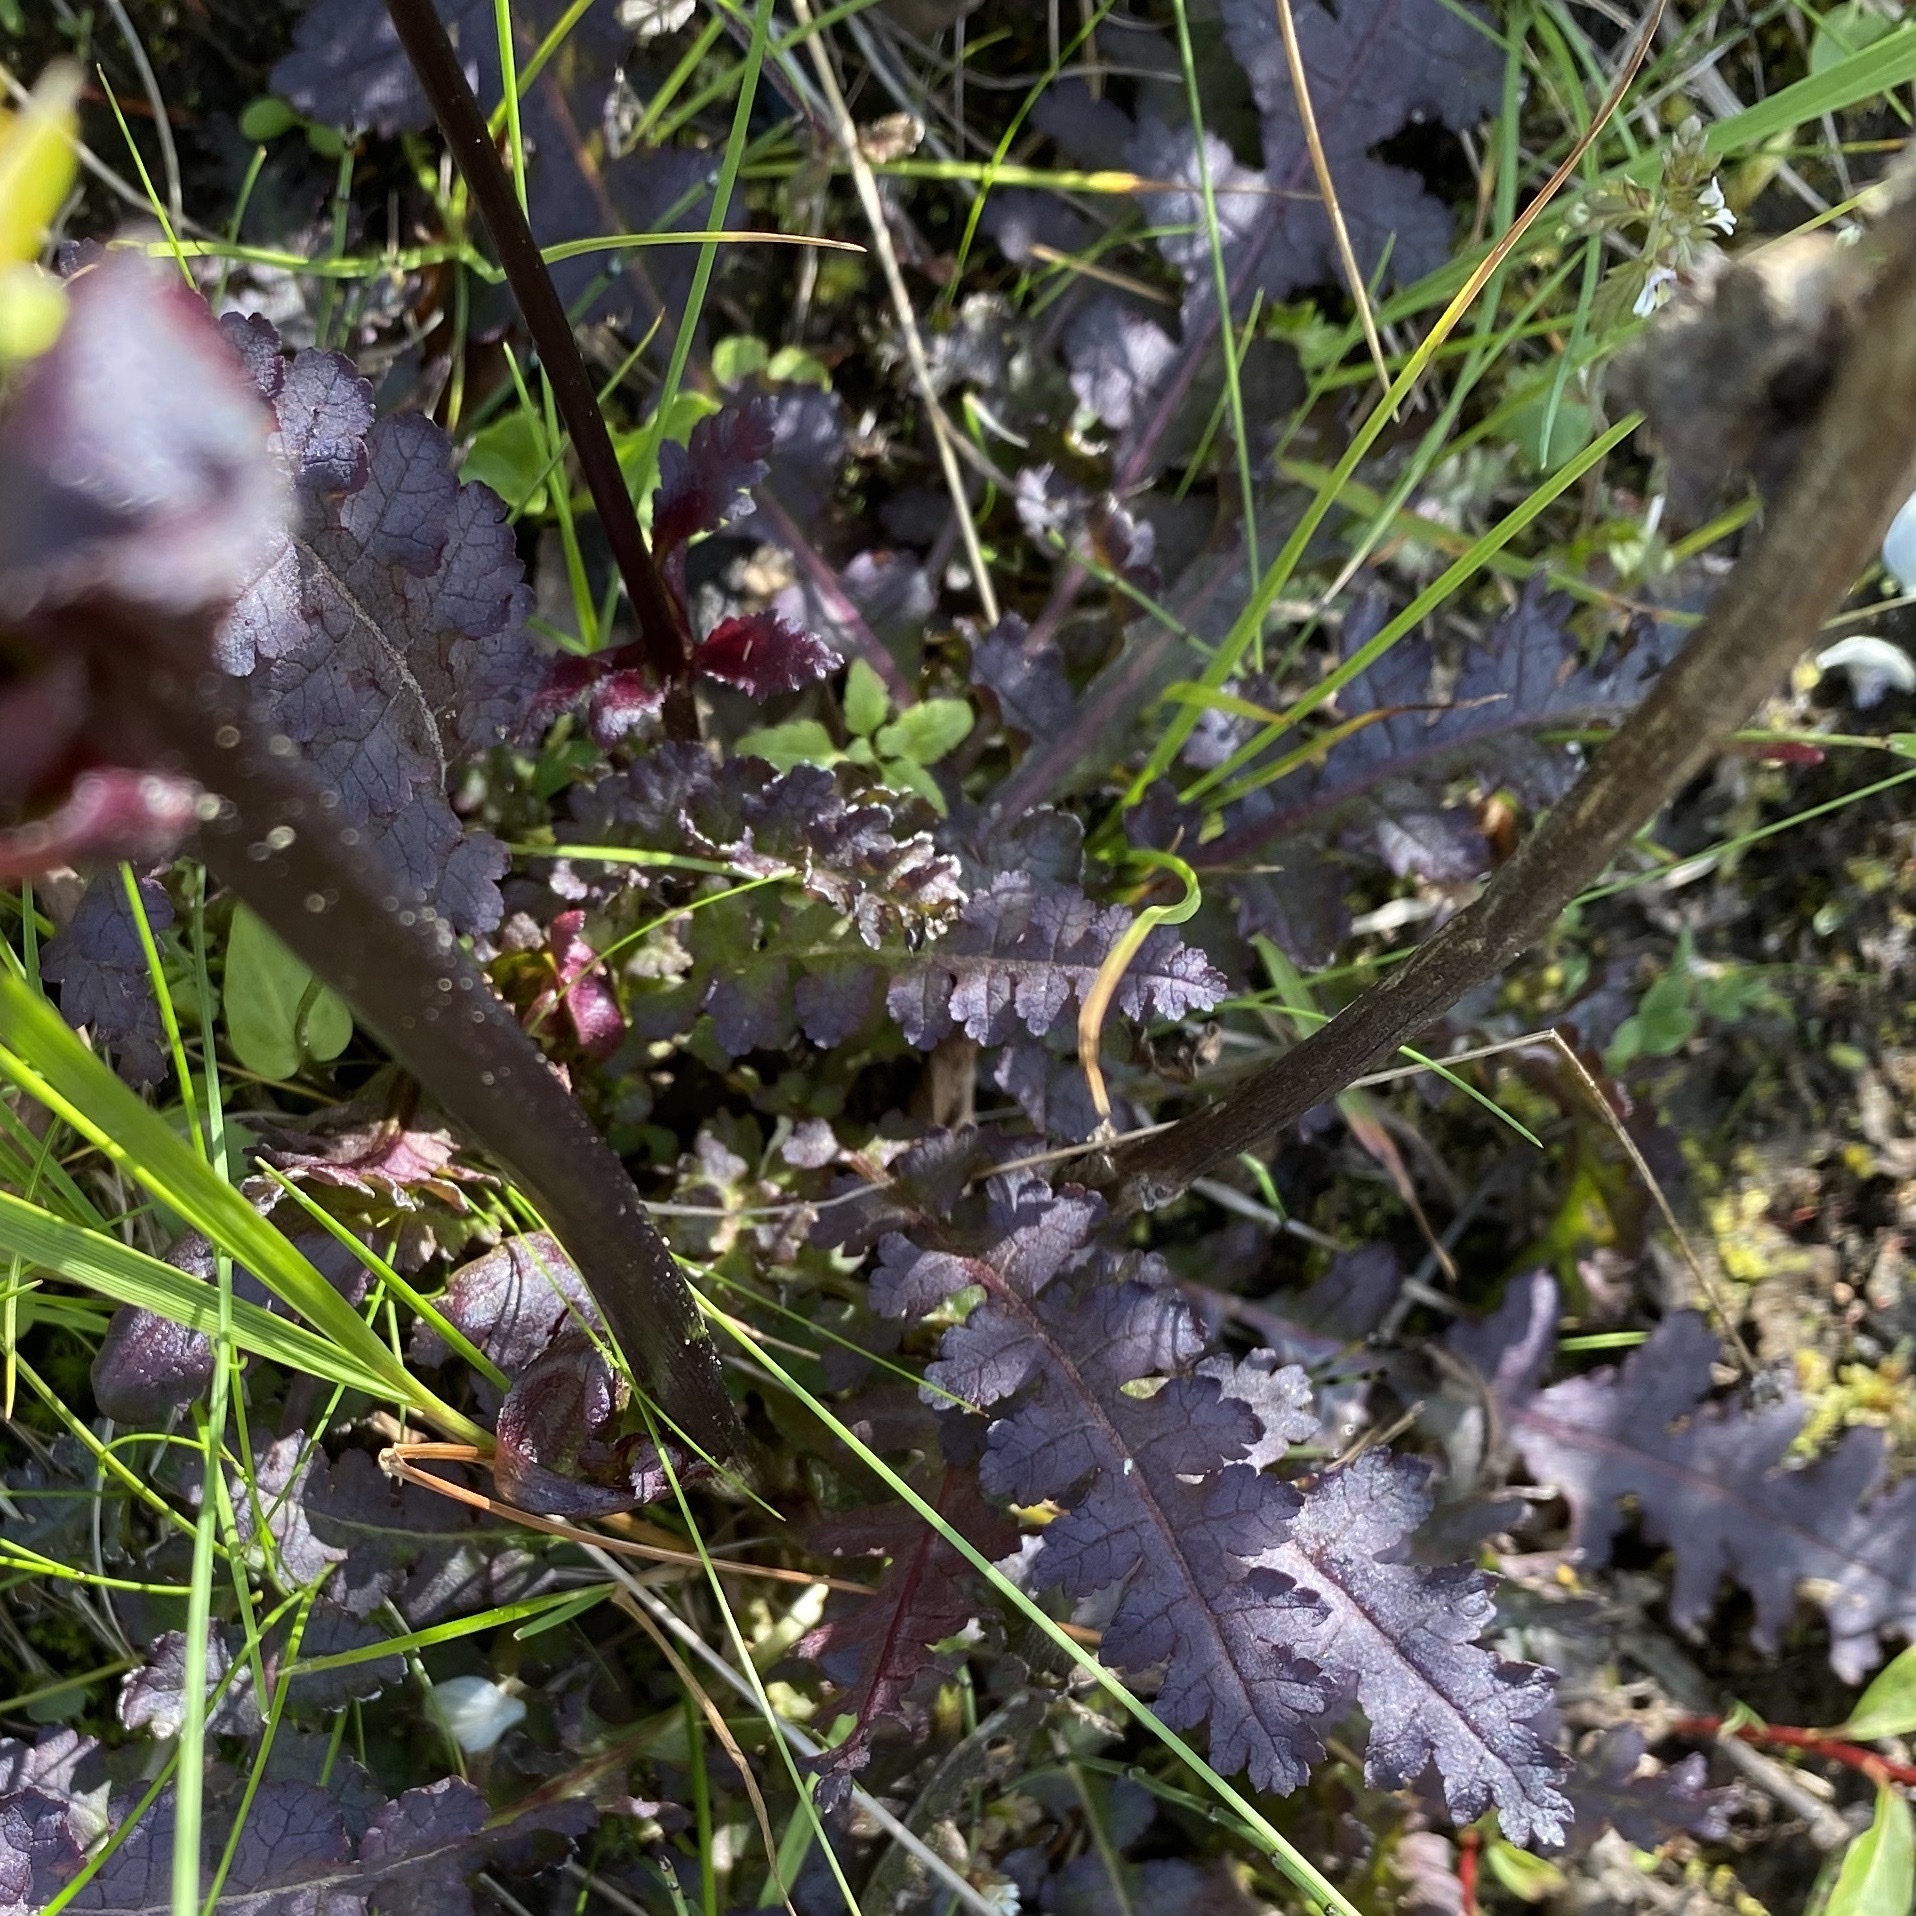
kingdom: Plantae
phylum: Tracheophyta
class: Magnoliopsida
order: Lamiales
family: Orobanchaceae
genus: Pedicularis
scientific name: Pedicularis sceptrum-carolinum
